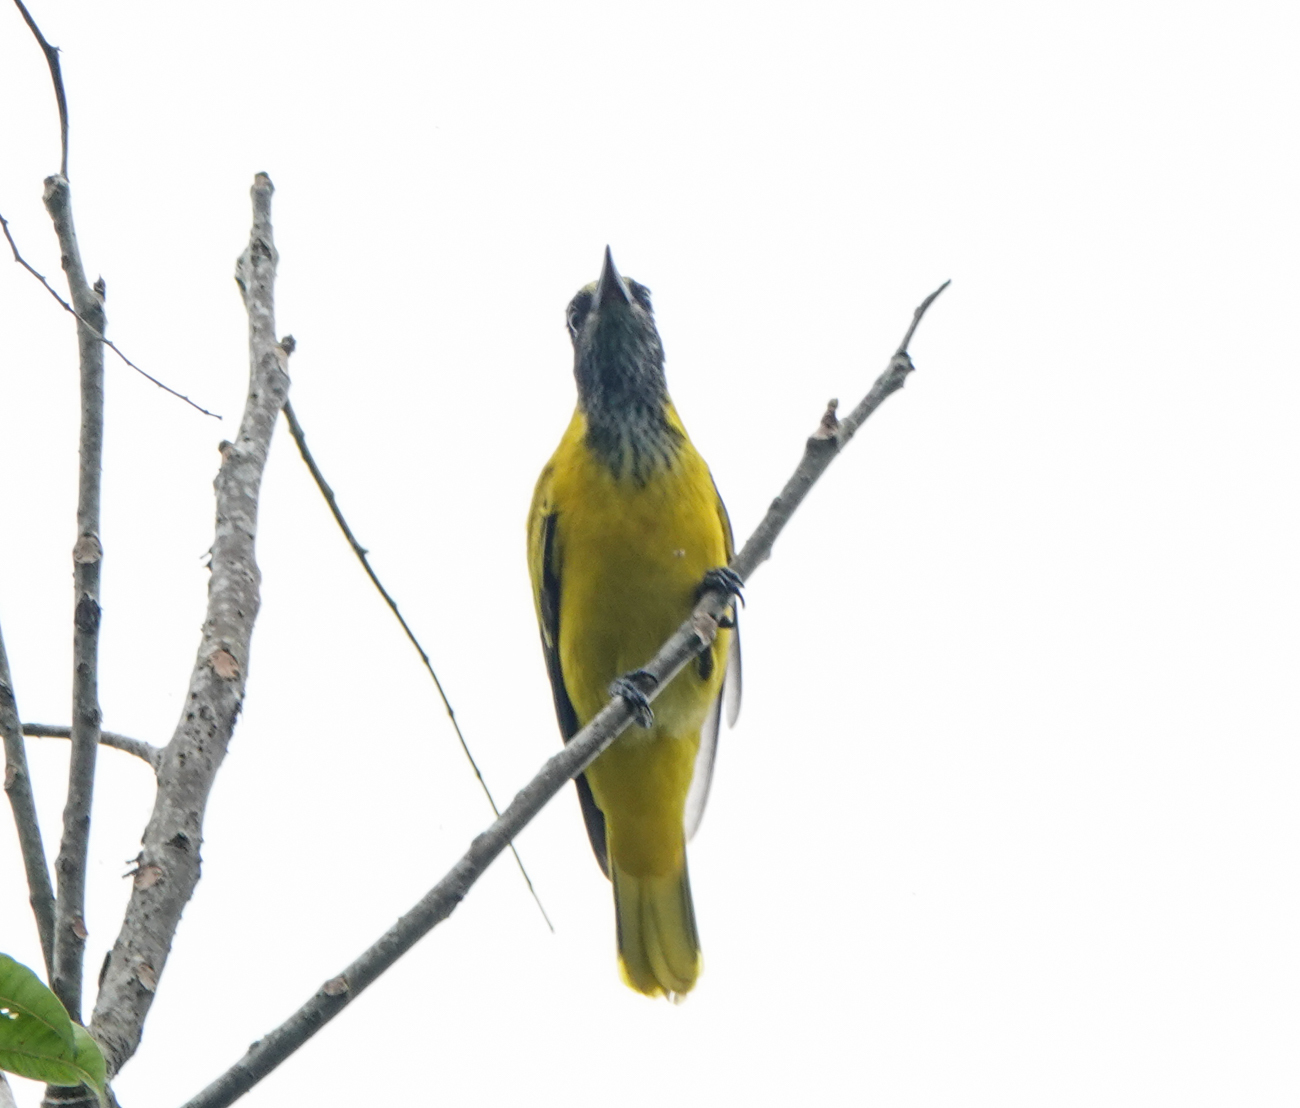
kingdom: Animalia
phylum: Chordata
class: Aves
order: Passeriformes
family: Oriolidae
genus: Oriolus
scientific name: Oriolus xanthornus
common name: Black-hooded oriole
